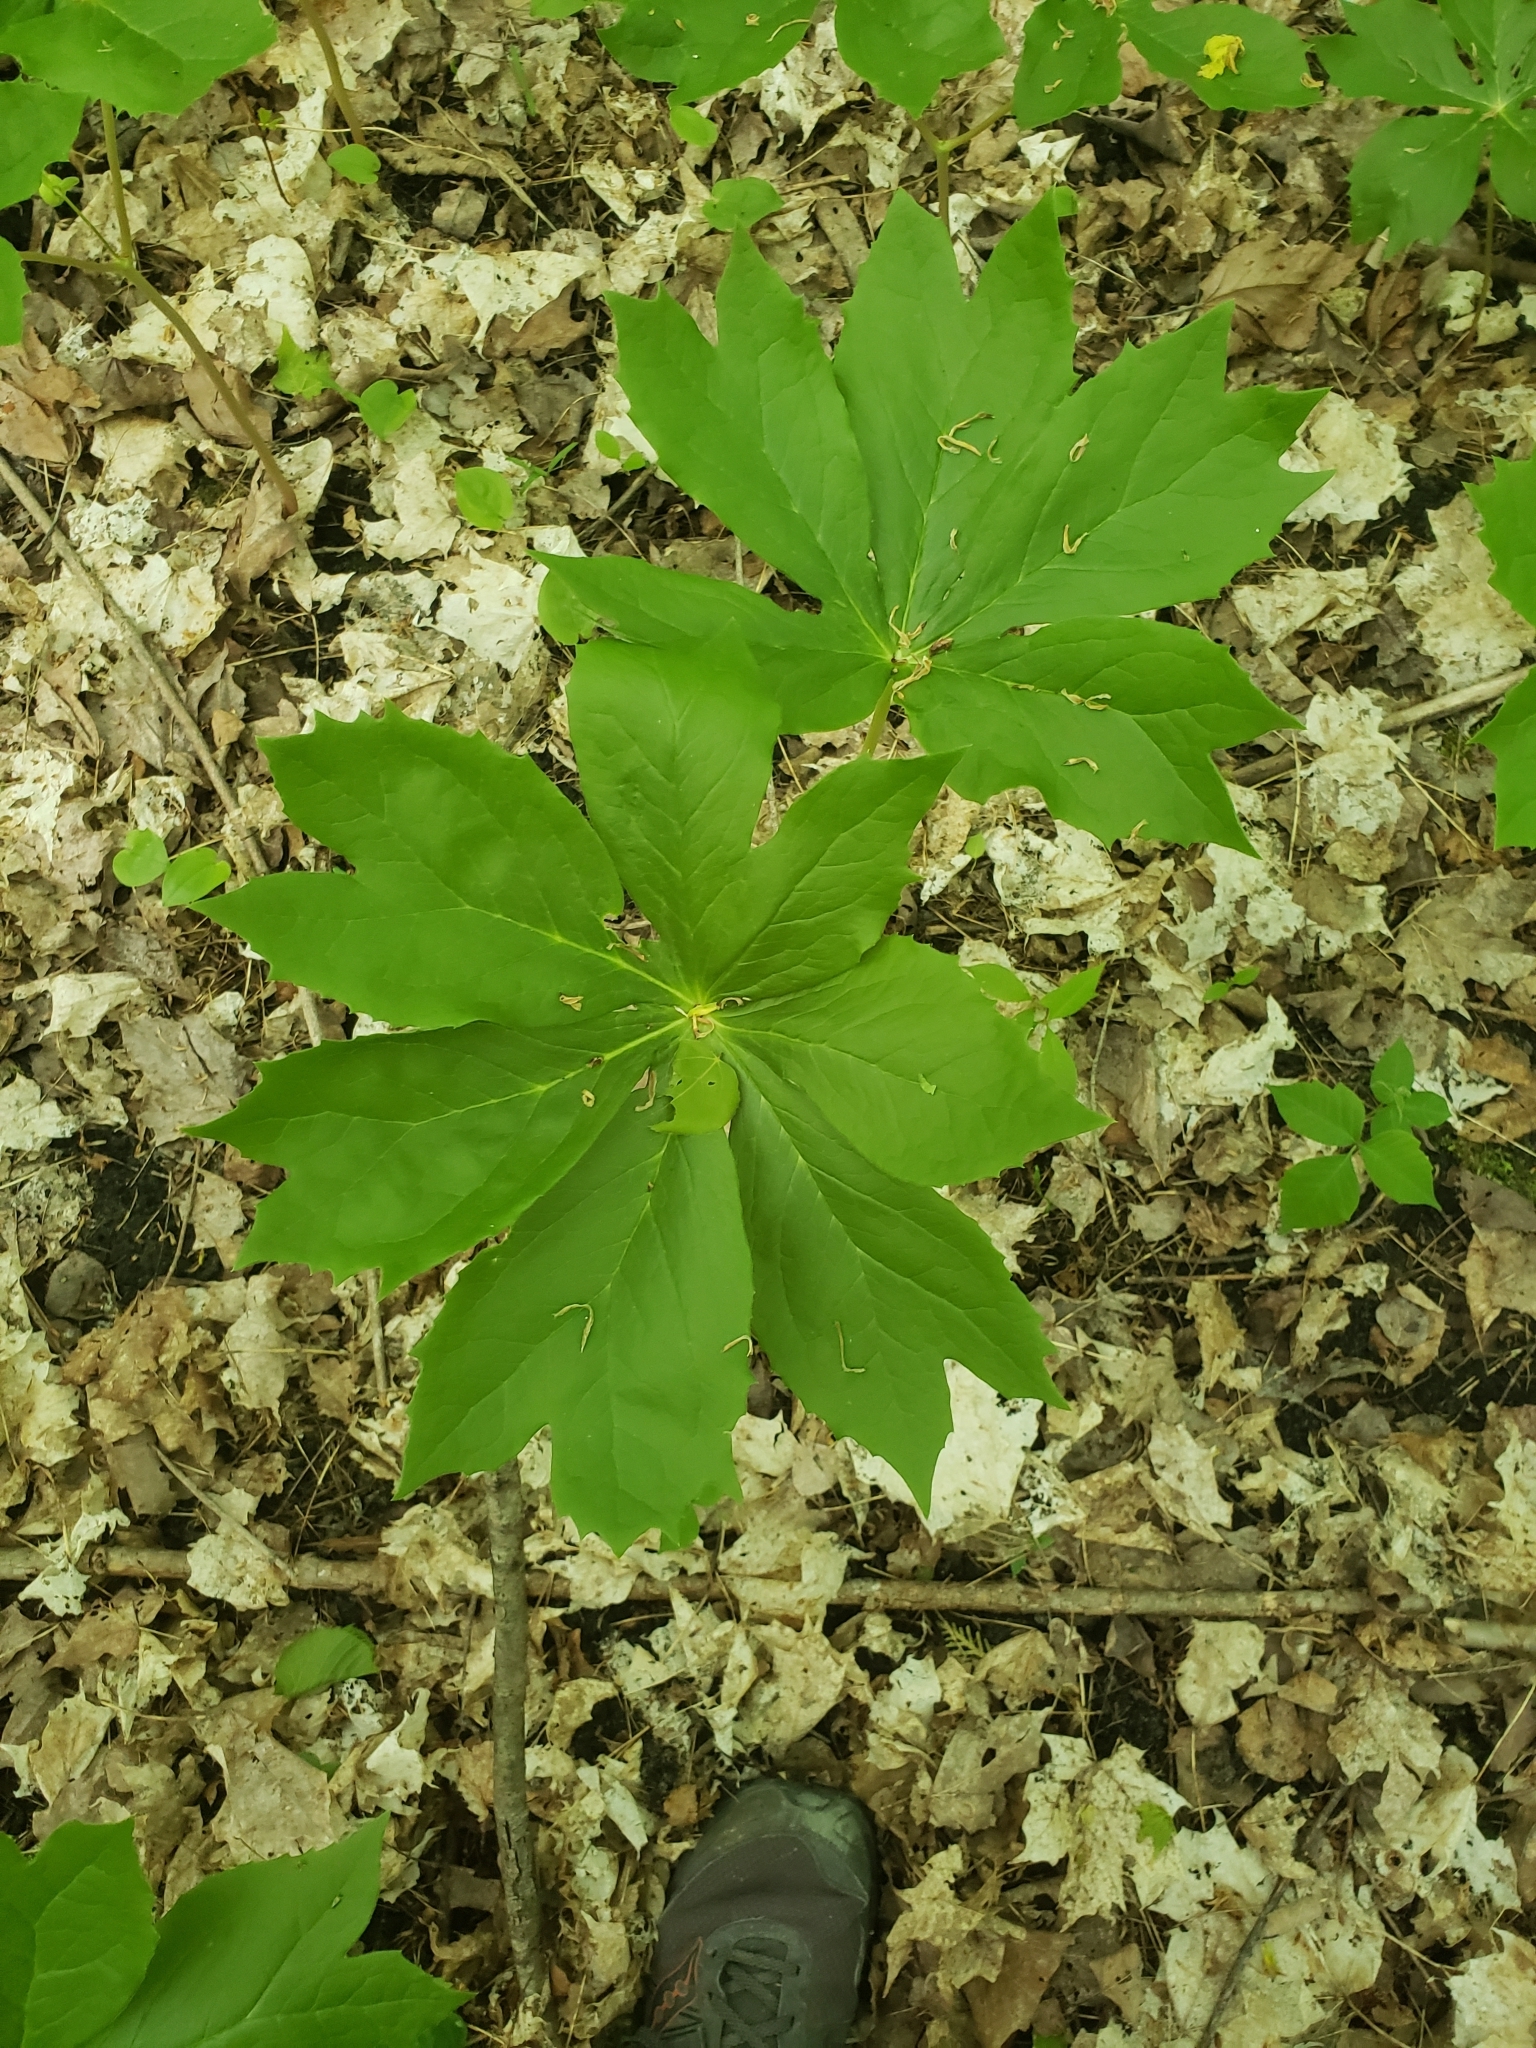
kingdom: Plantae
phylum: Tracheophyta
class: Magnoliopsida
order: Ranunculales
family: Berberidaceae
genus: Podophyllum
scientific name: Podophyllum peltatum
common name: Wild mandrake
